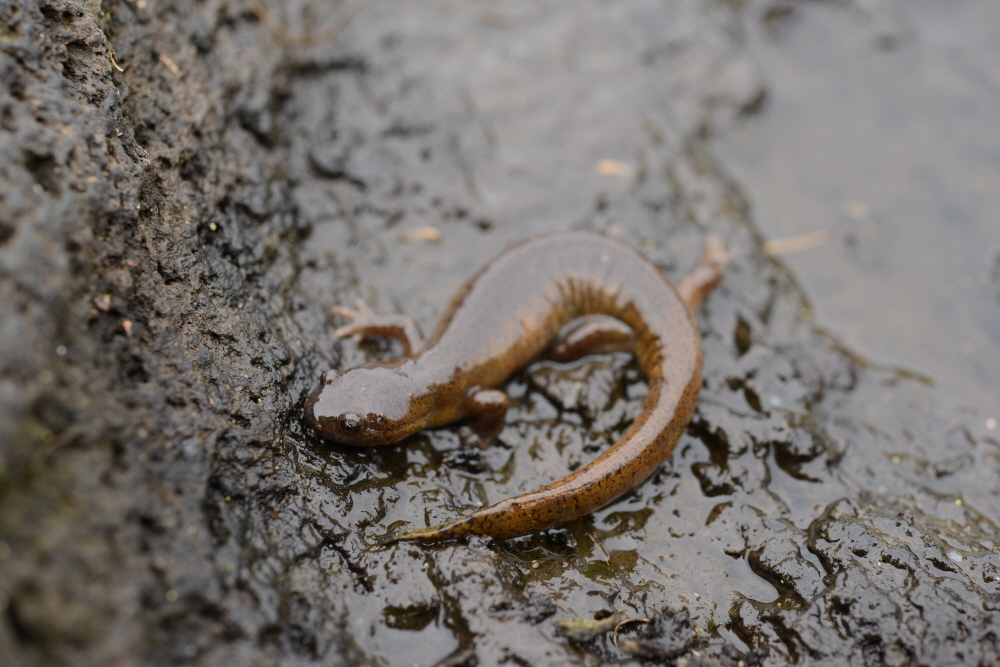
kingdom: Animalia
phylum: Chordata
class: Amphibia
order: Caudata
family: Hynobiidae
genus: Hynobius
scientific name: Hynobius quelpaertensis
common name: Cheju salamander
